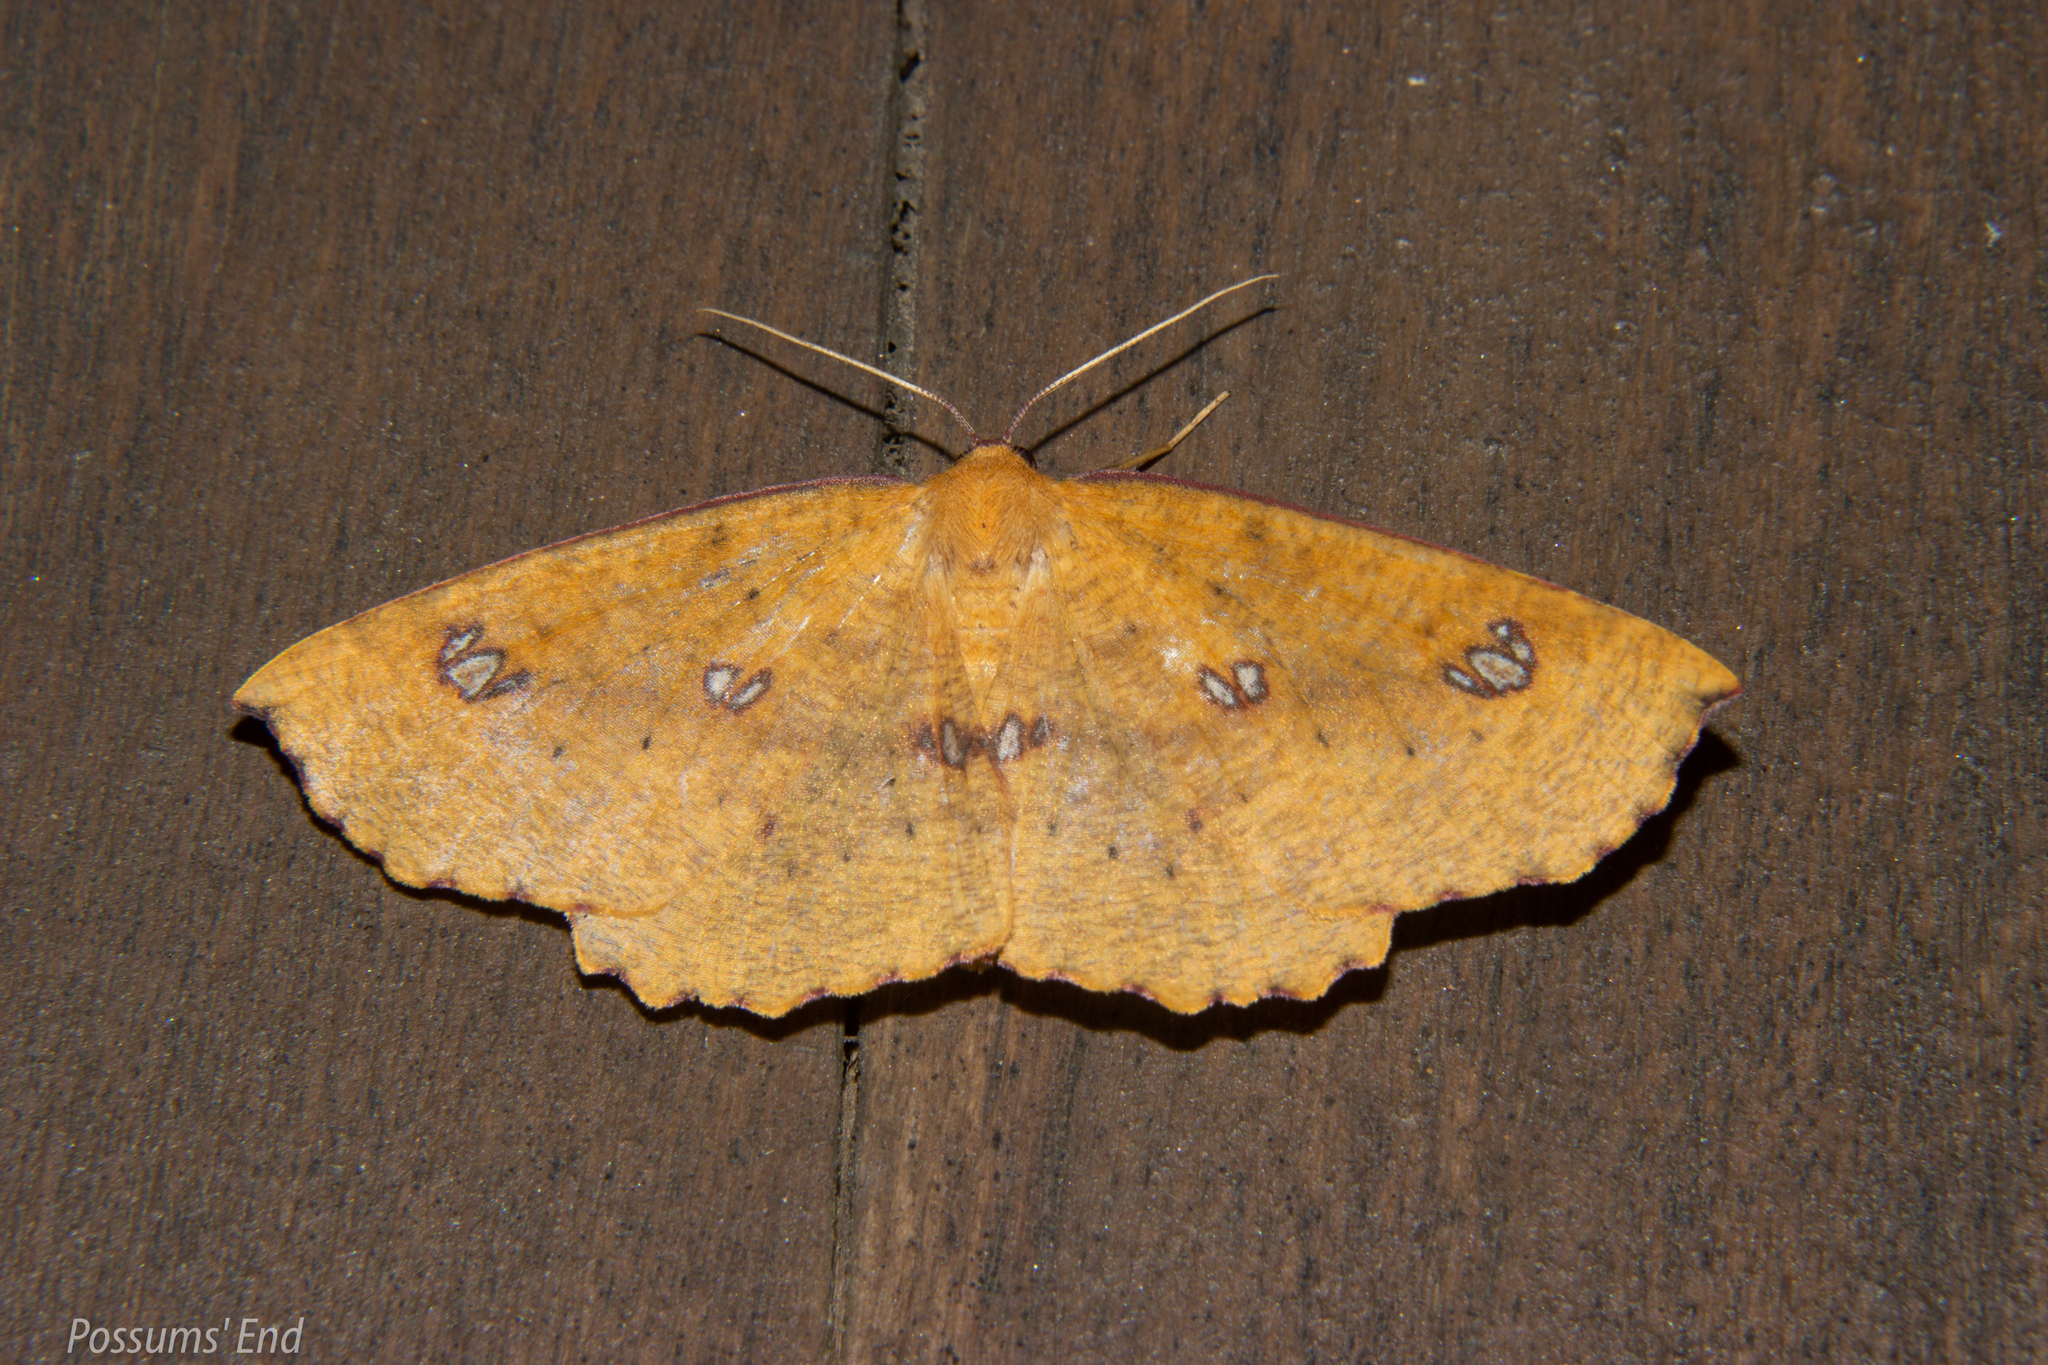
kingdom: Animalia
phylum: Arthropoda
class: Insecta
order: Lepidoptera
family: Geometridae
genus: Xyridacma
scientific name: Xyridacma alectoraria
